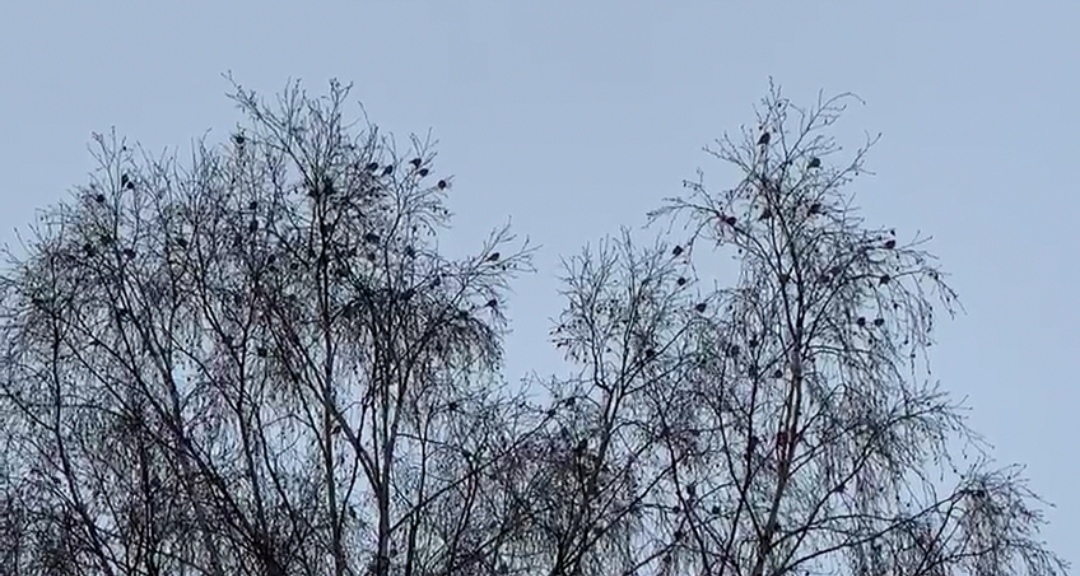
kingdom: Animalia
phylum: Chordata
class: Aves
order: Passeriformes
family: Fringillidae
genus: Spinus
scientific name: Spinus spinus
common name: Eurasian siskin
